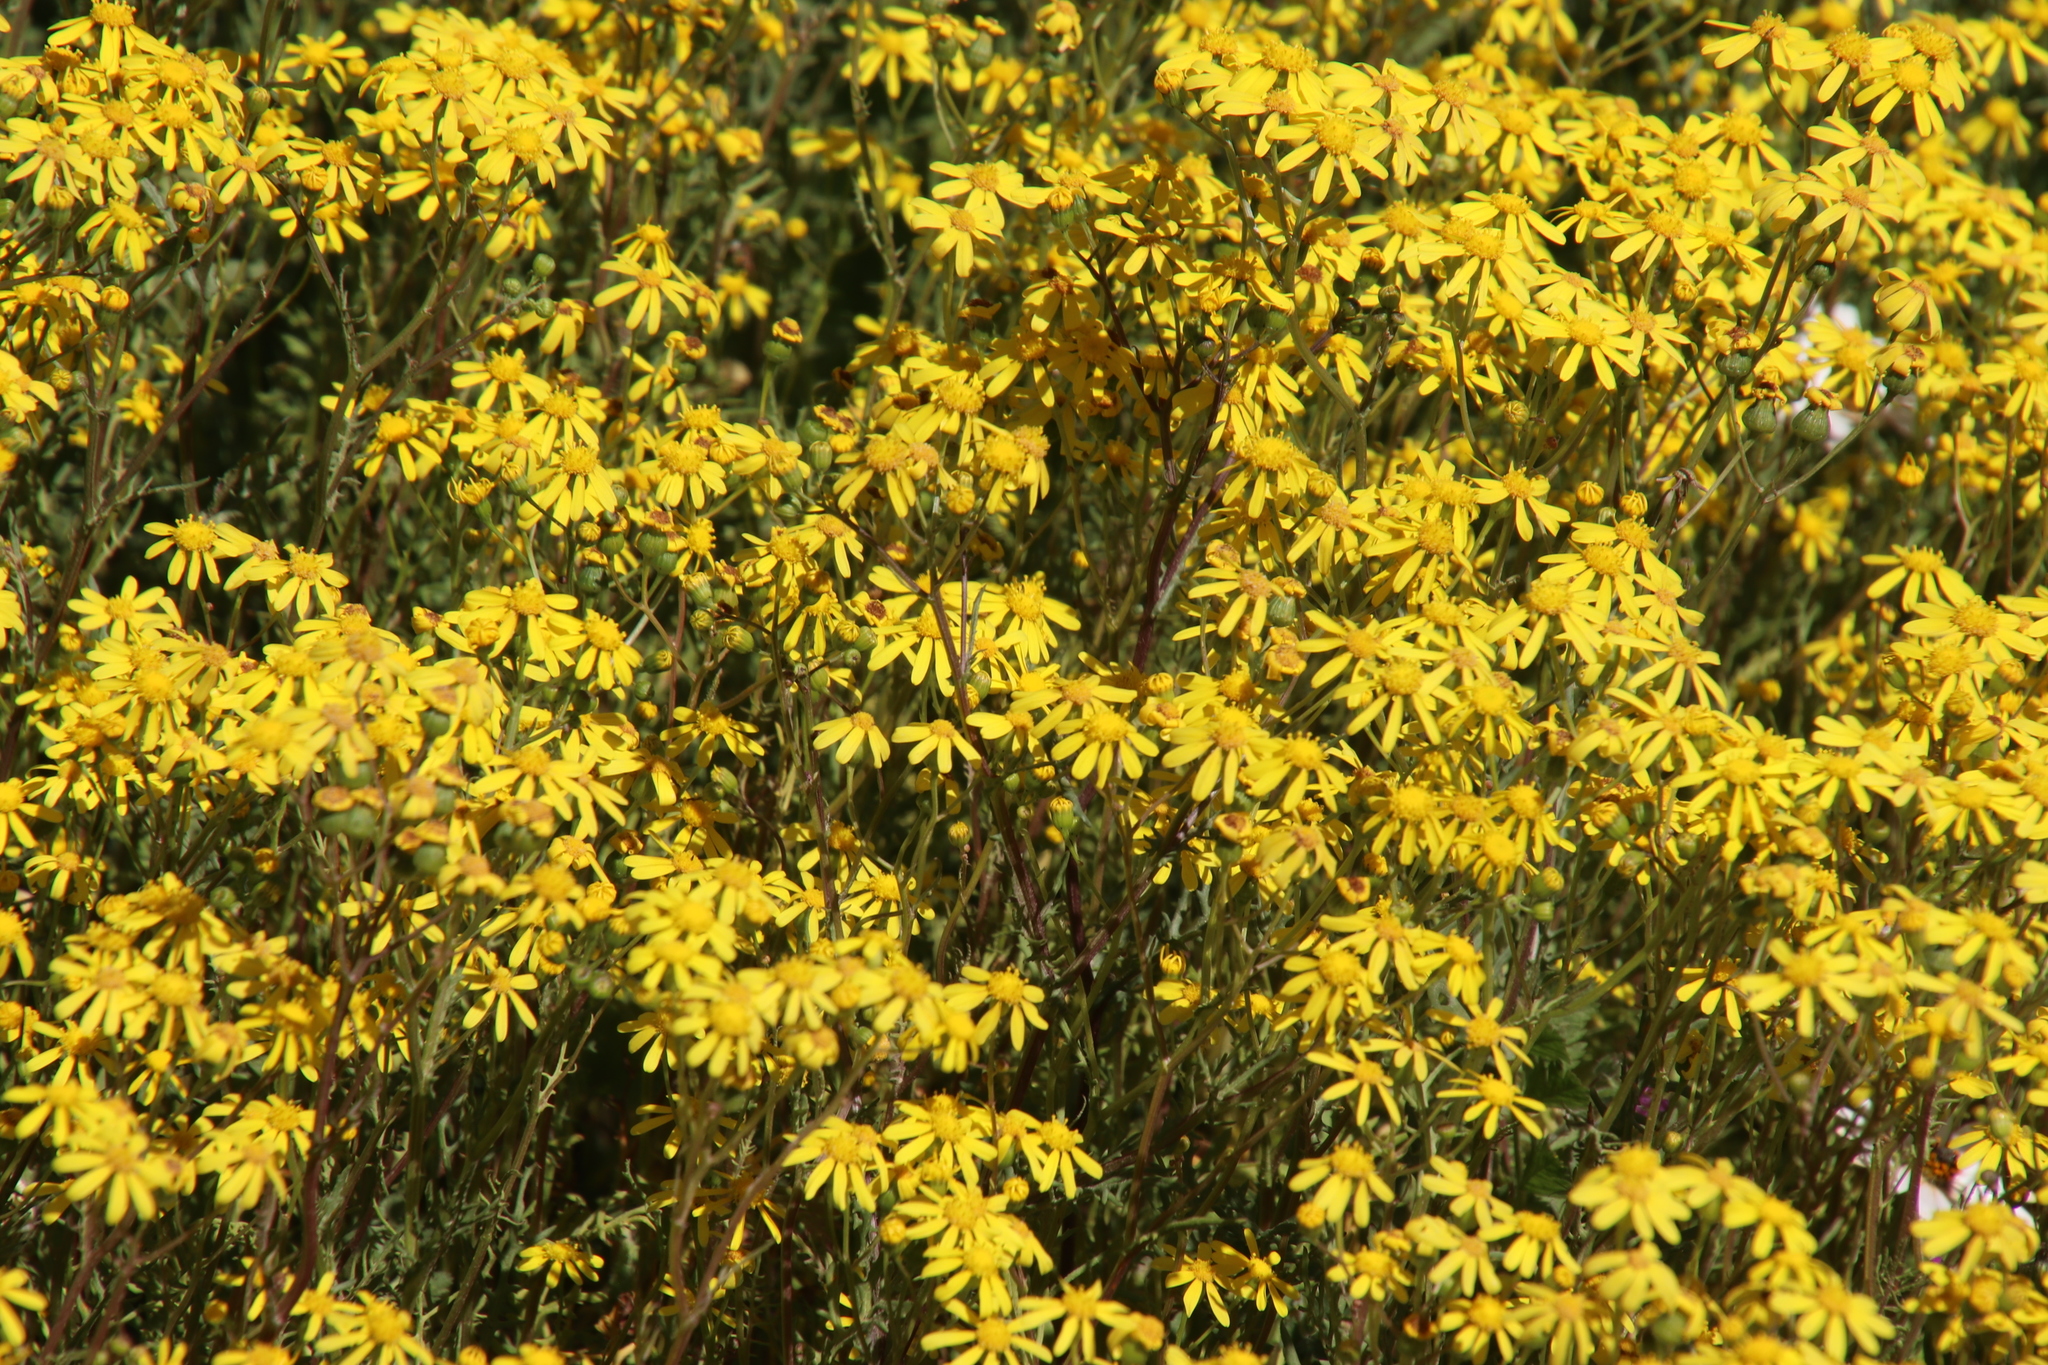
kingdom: Plantae
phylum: Tracheophyta
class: Magnoliopsida
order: Asterales
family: Asteraceae
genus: Senecio
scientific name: Senecio abruptus
